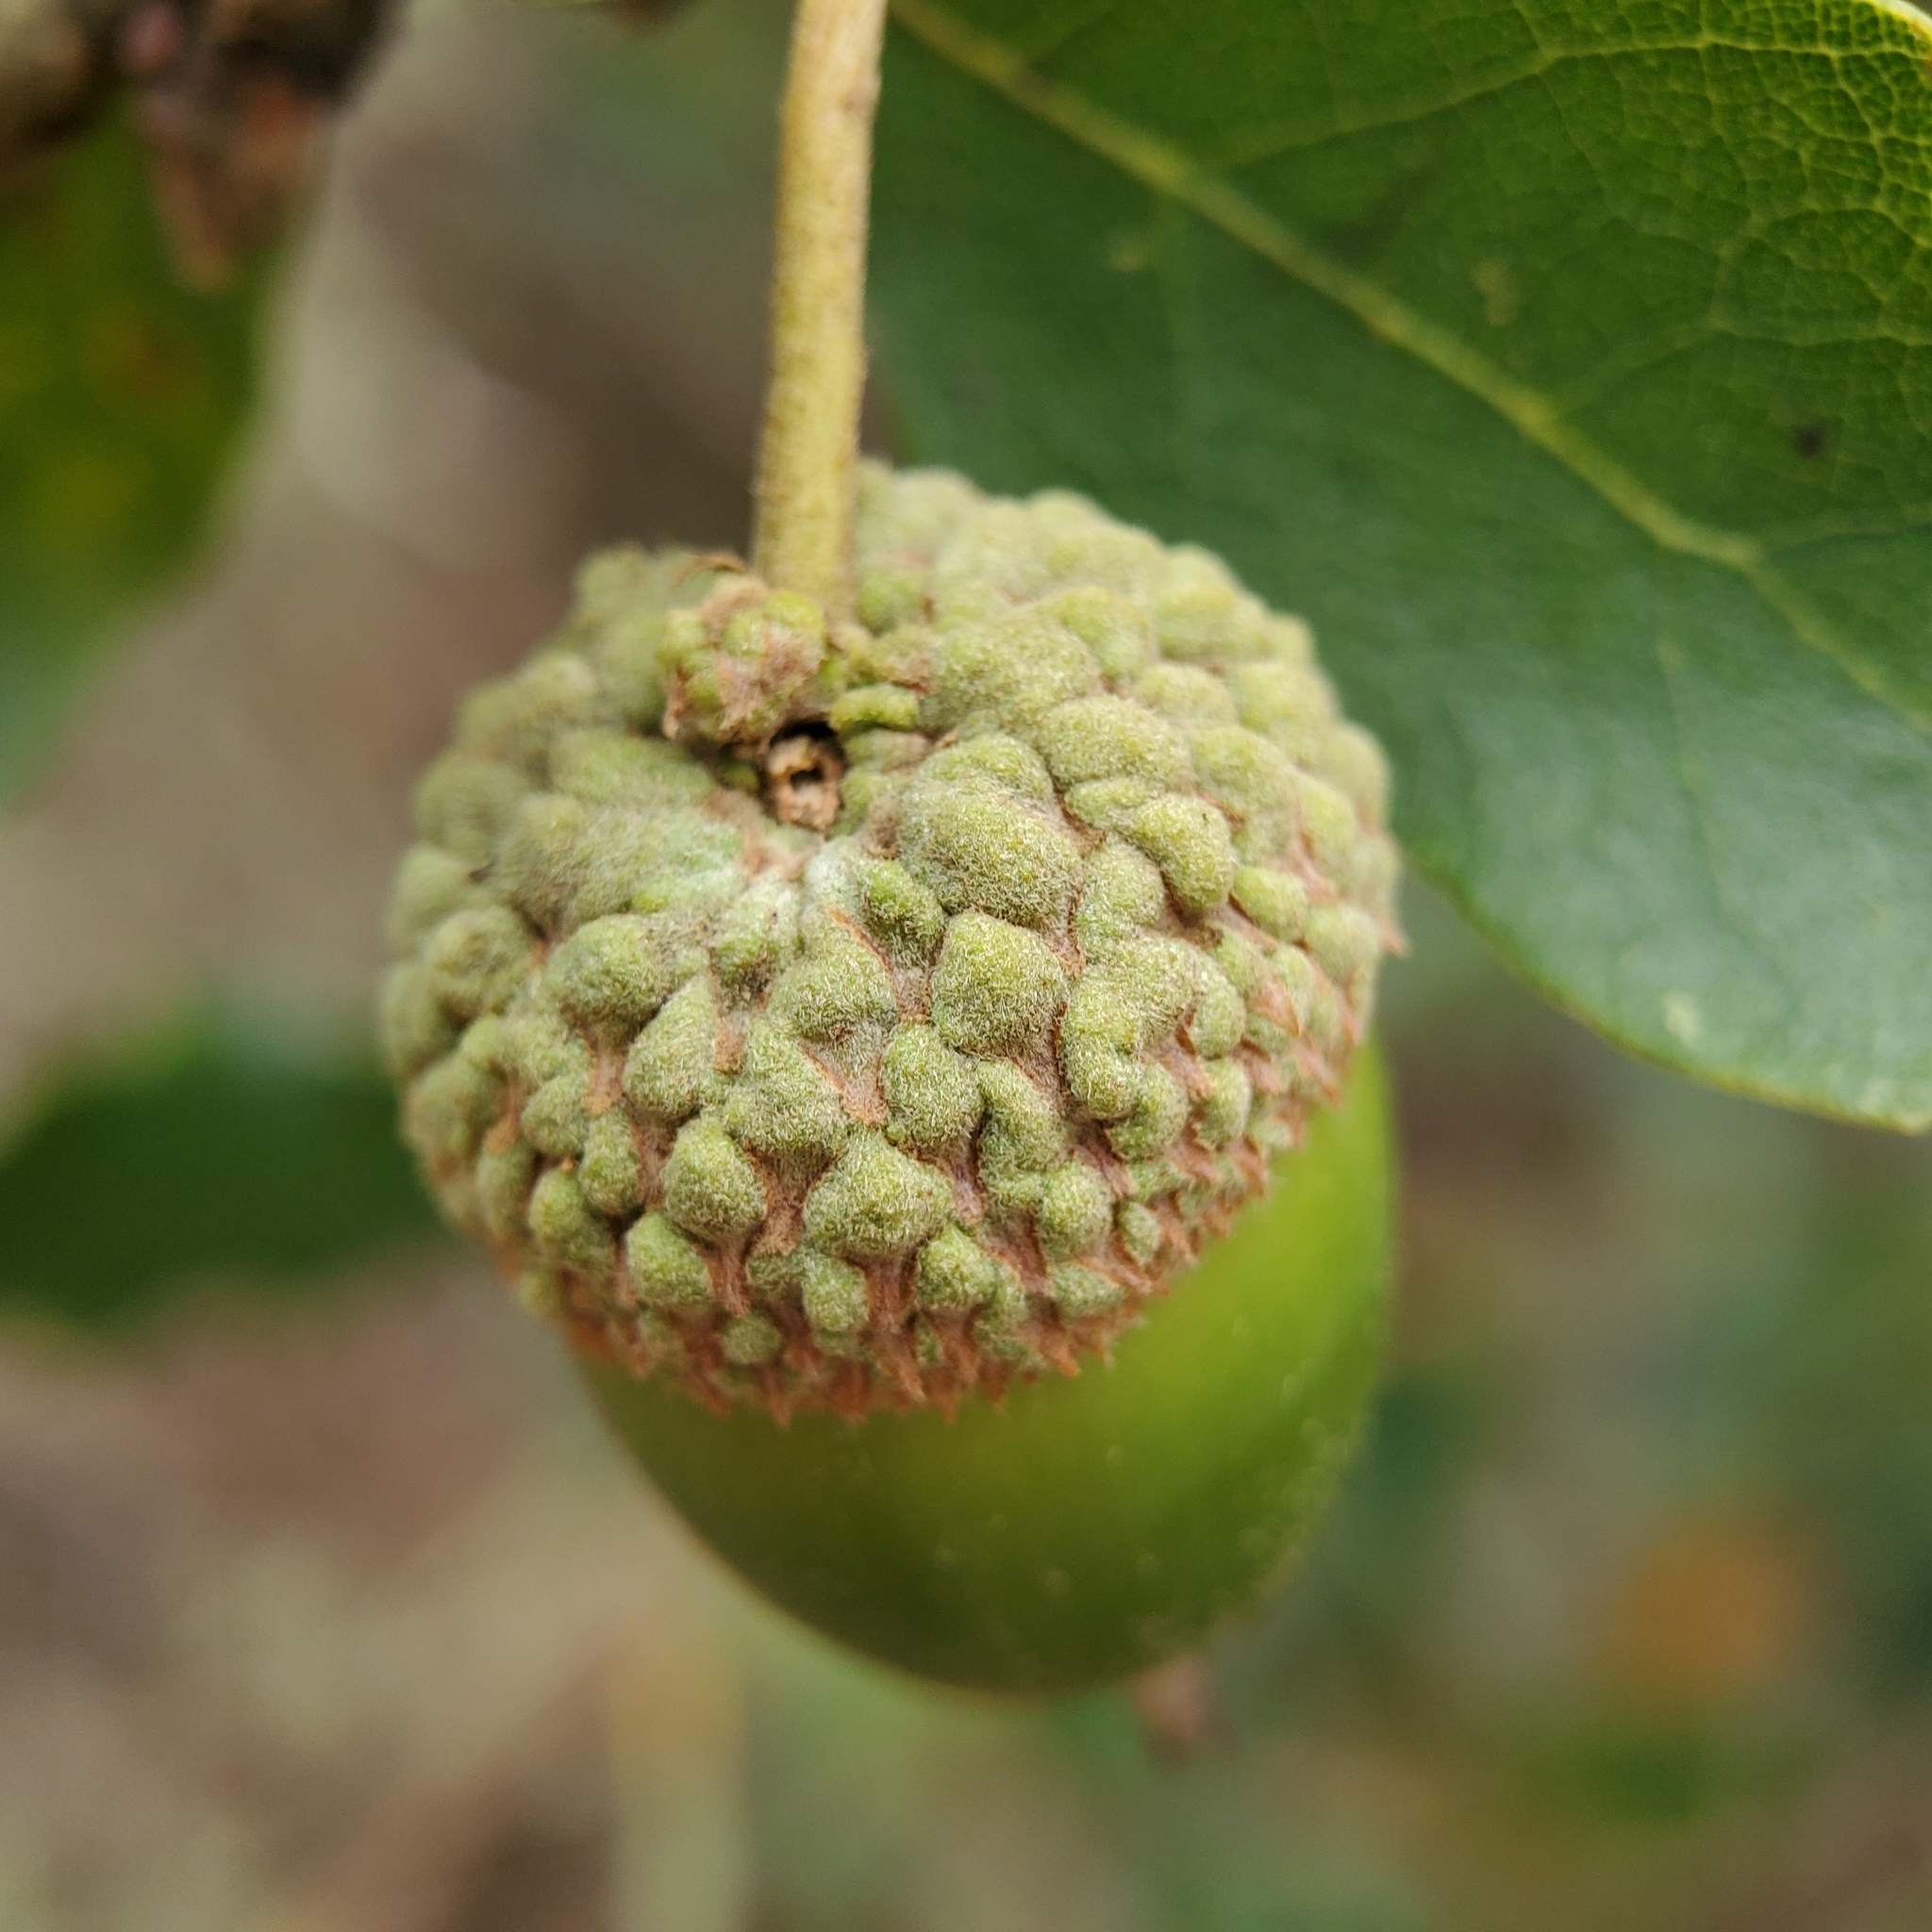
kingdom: Plantae
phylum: Tracheophyta
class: Magnoliopsida
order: Fagales
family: Fagaceae
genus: Quercus
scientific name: Quercus berberidifolia
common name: California scrub oak
